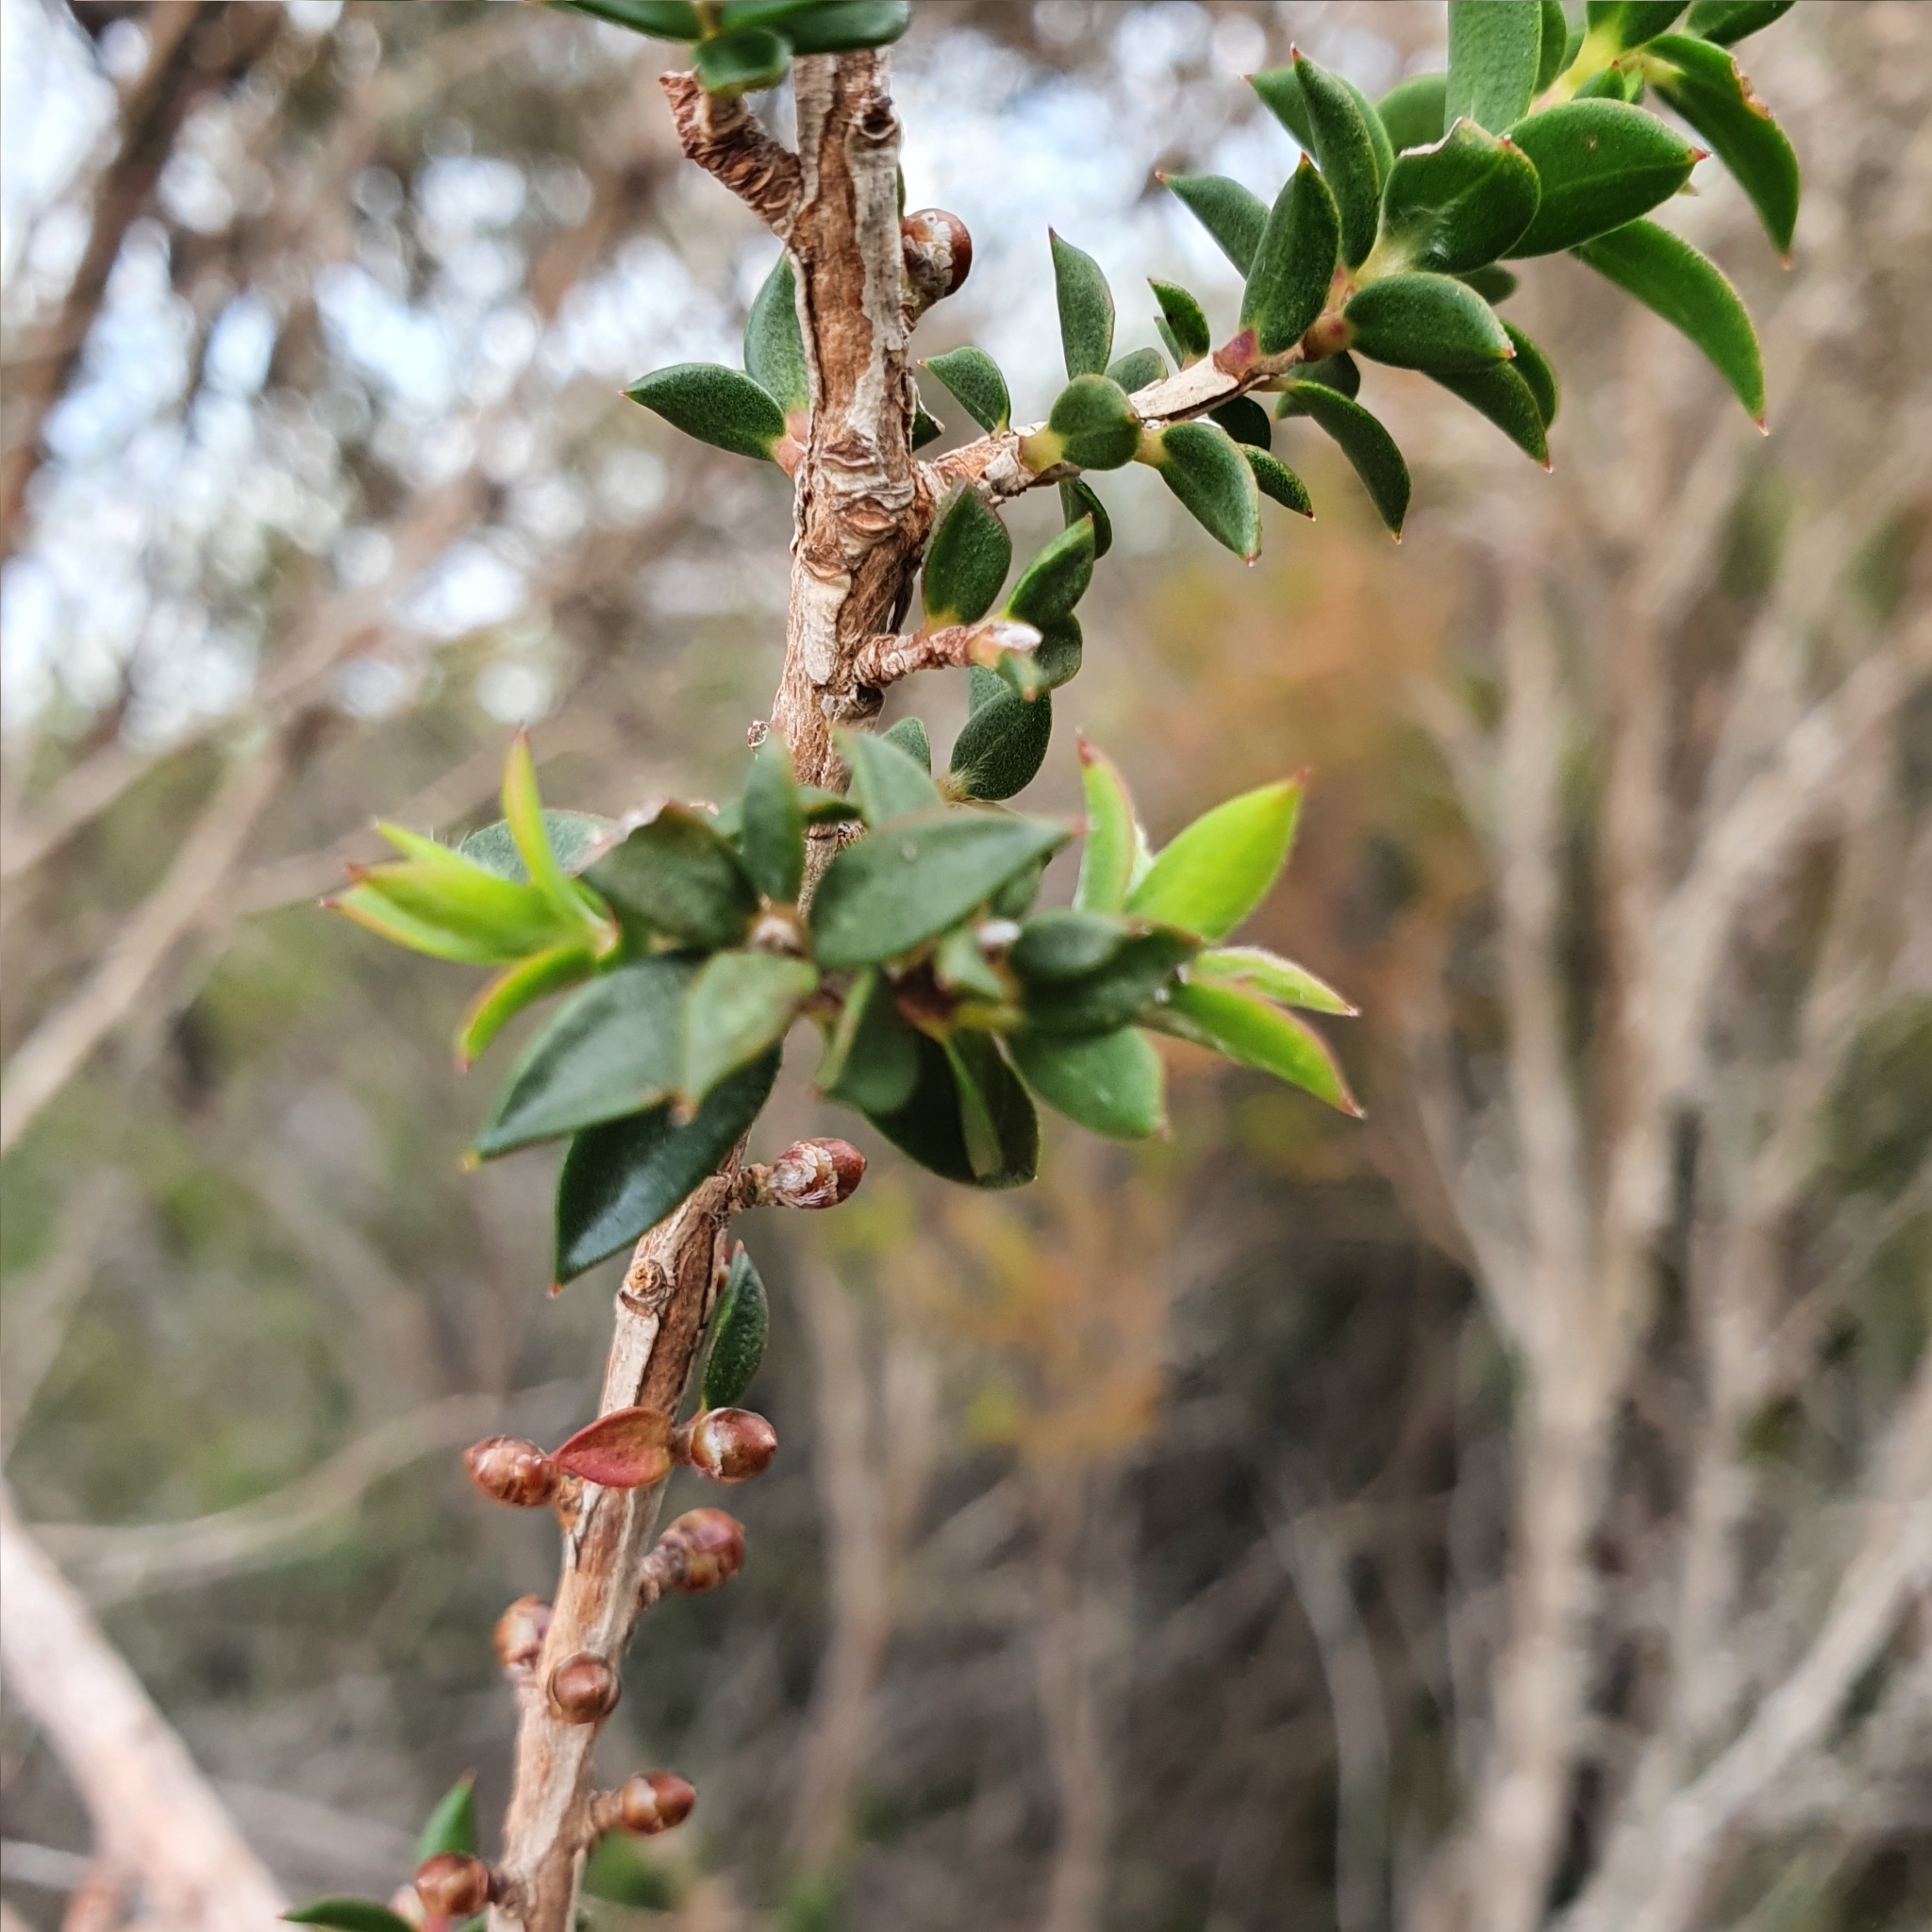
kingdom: Plantae
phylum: Tracheophyta
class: Magnoliopsida
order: Myrtales
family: Myrtaceae
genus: Leptospermum
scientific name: Leptospermum squarrosum
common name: Peach-blossom teatree
